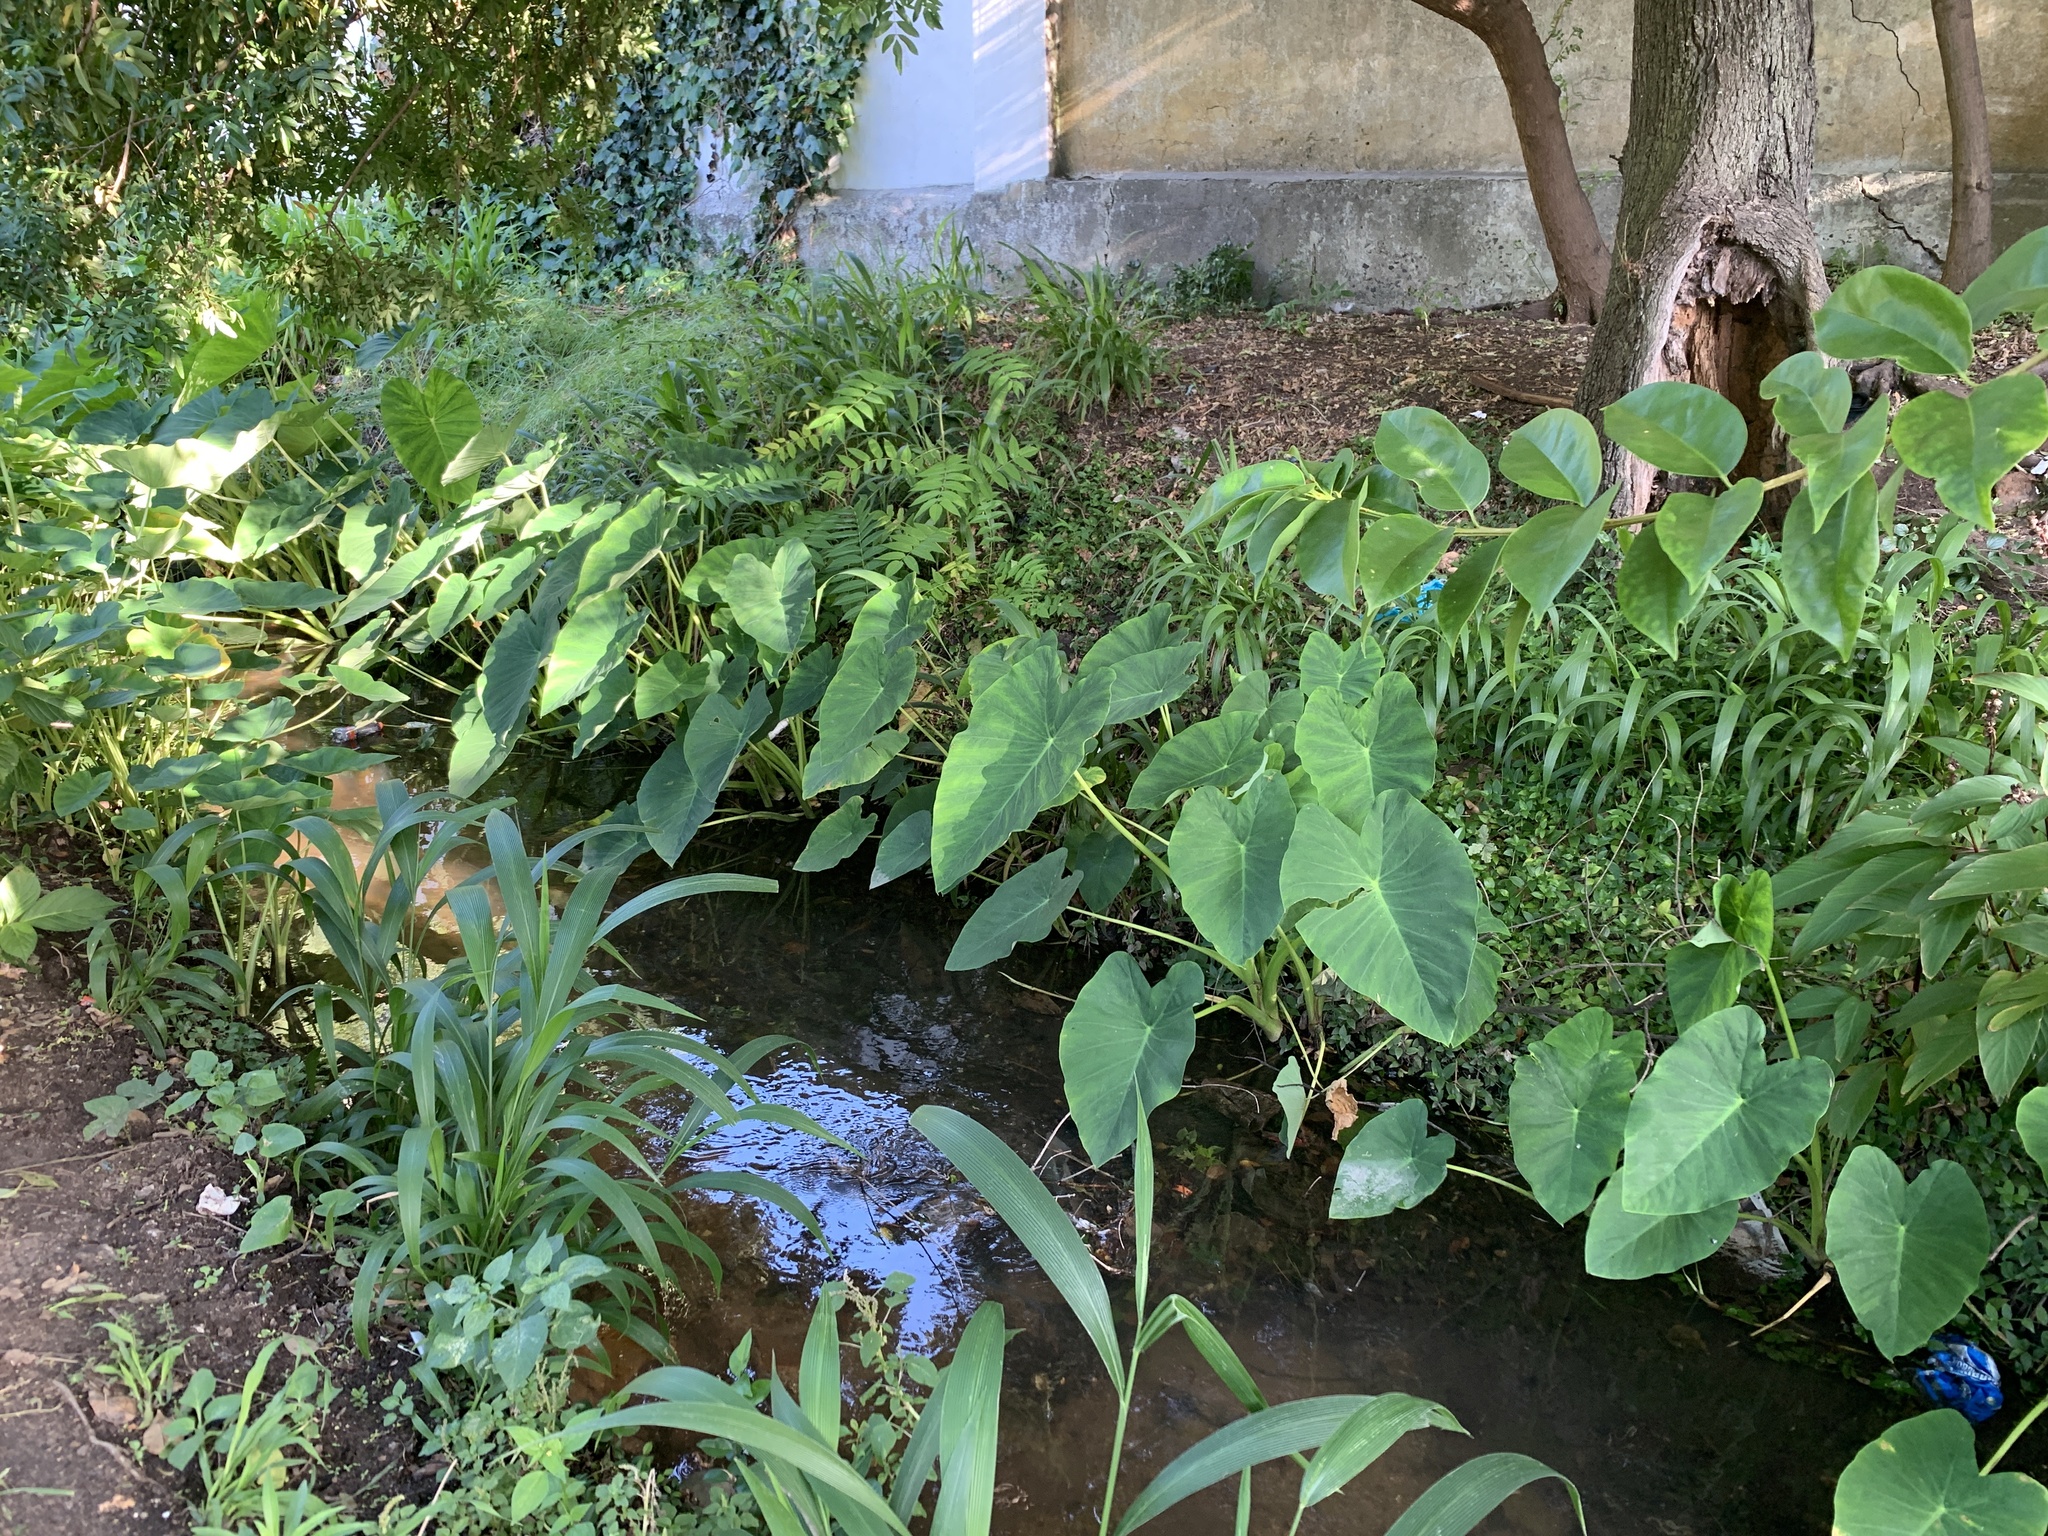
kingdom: Plantae
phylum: Tracheophyta
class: Liliopsida
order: Alismatales
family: Araceae
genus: Colocasia
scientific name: Colocasia esculenta
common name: Taro
